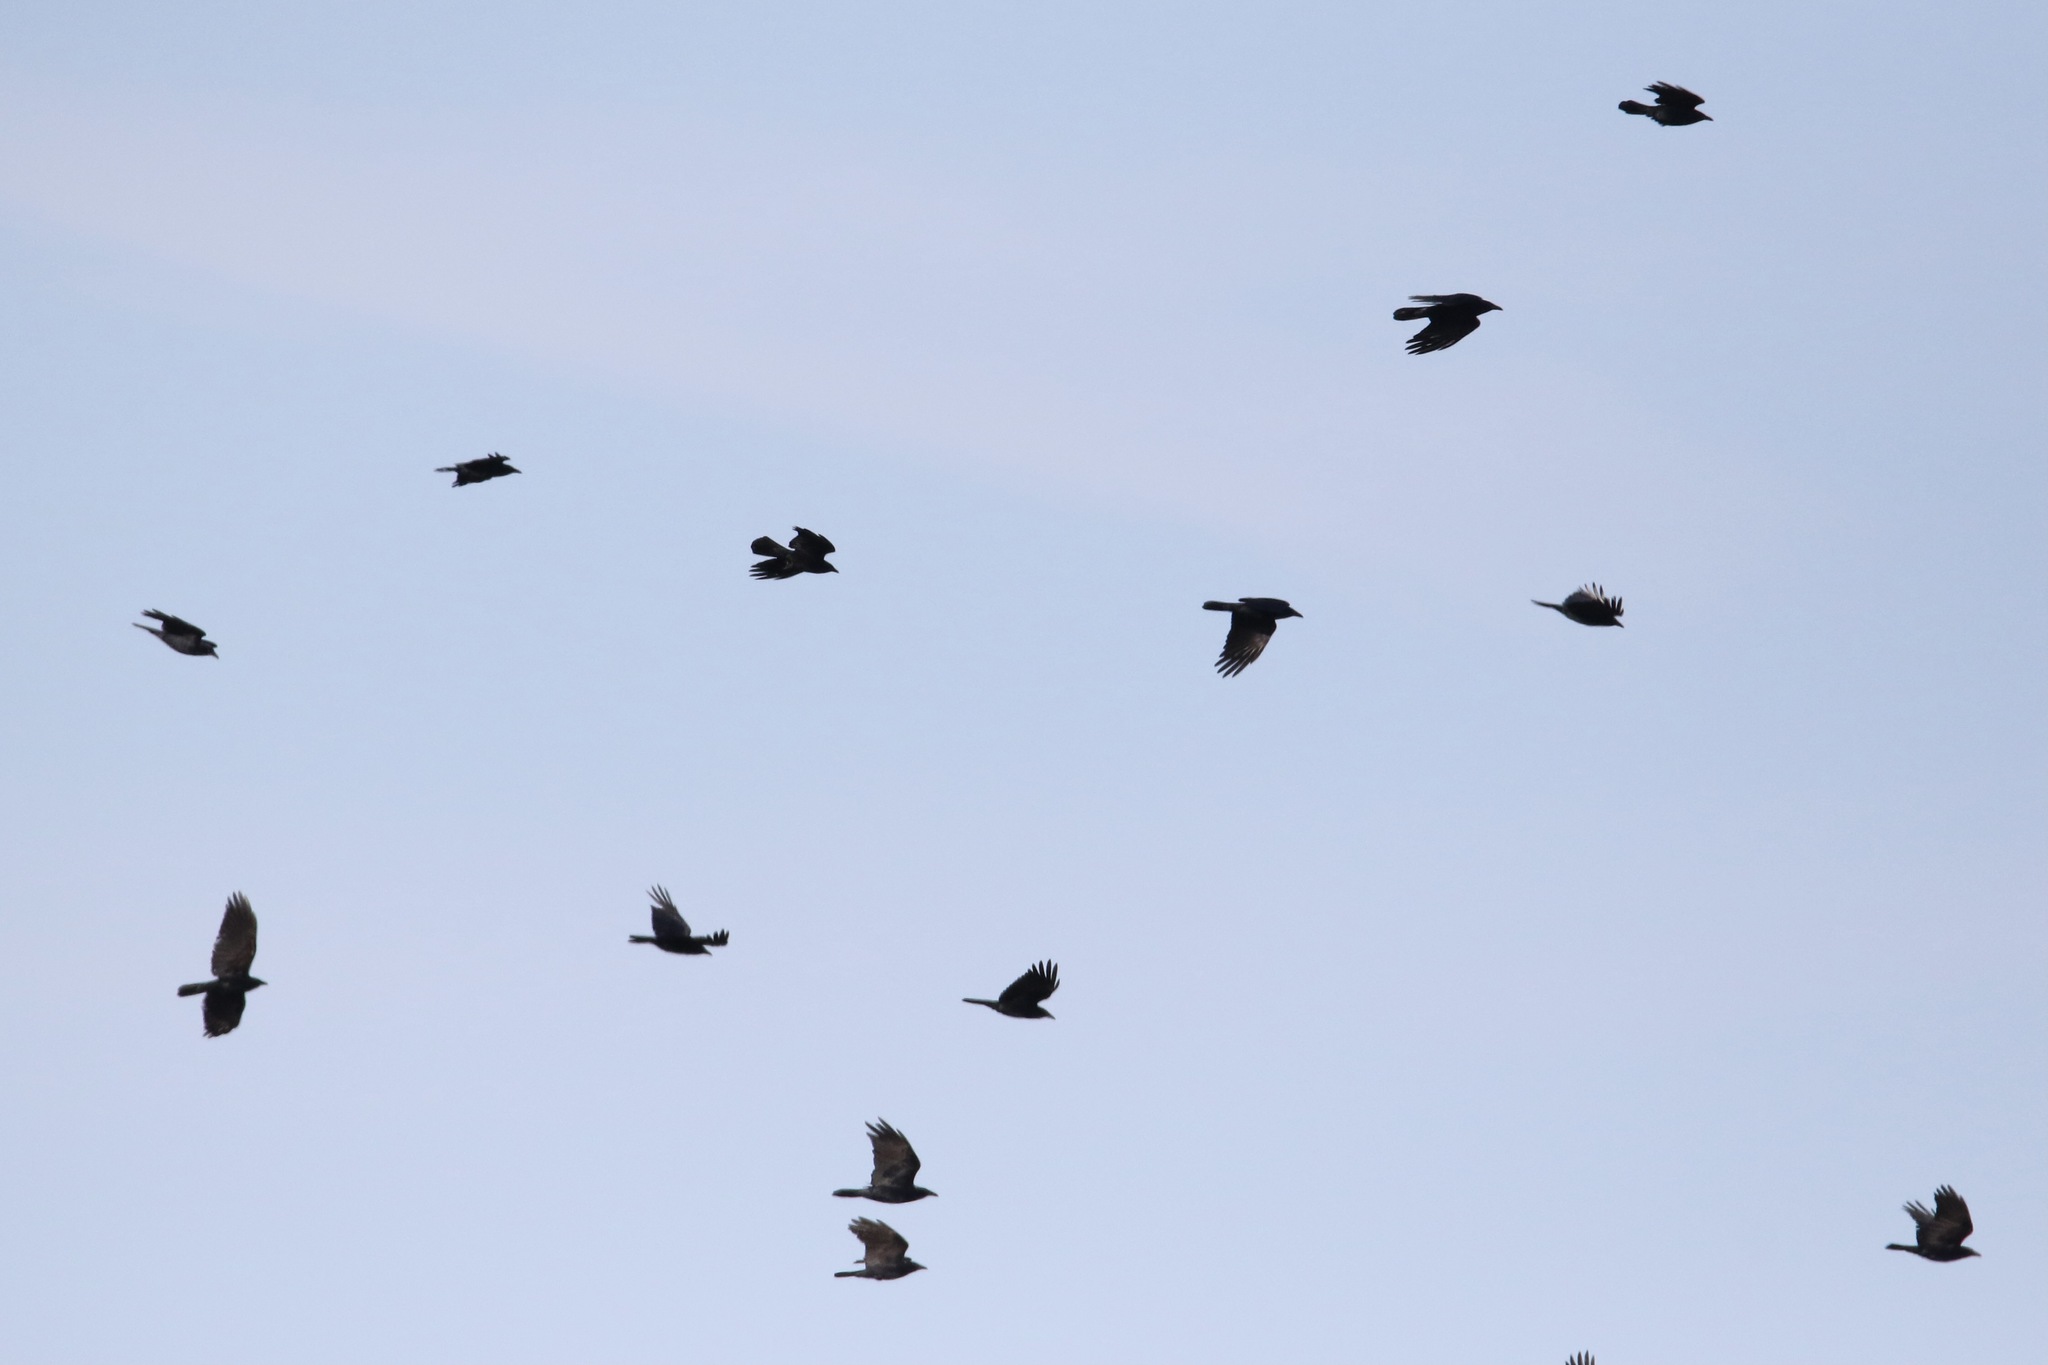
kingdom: Animalia
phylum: Chordata
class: Aves
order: Passeriformes
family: Corvidae
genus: Corvus
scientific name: Corvus ossifragus
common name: Fish crow
